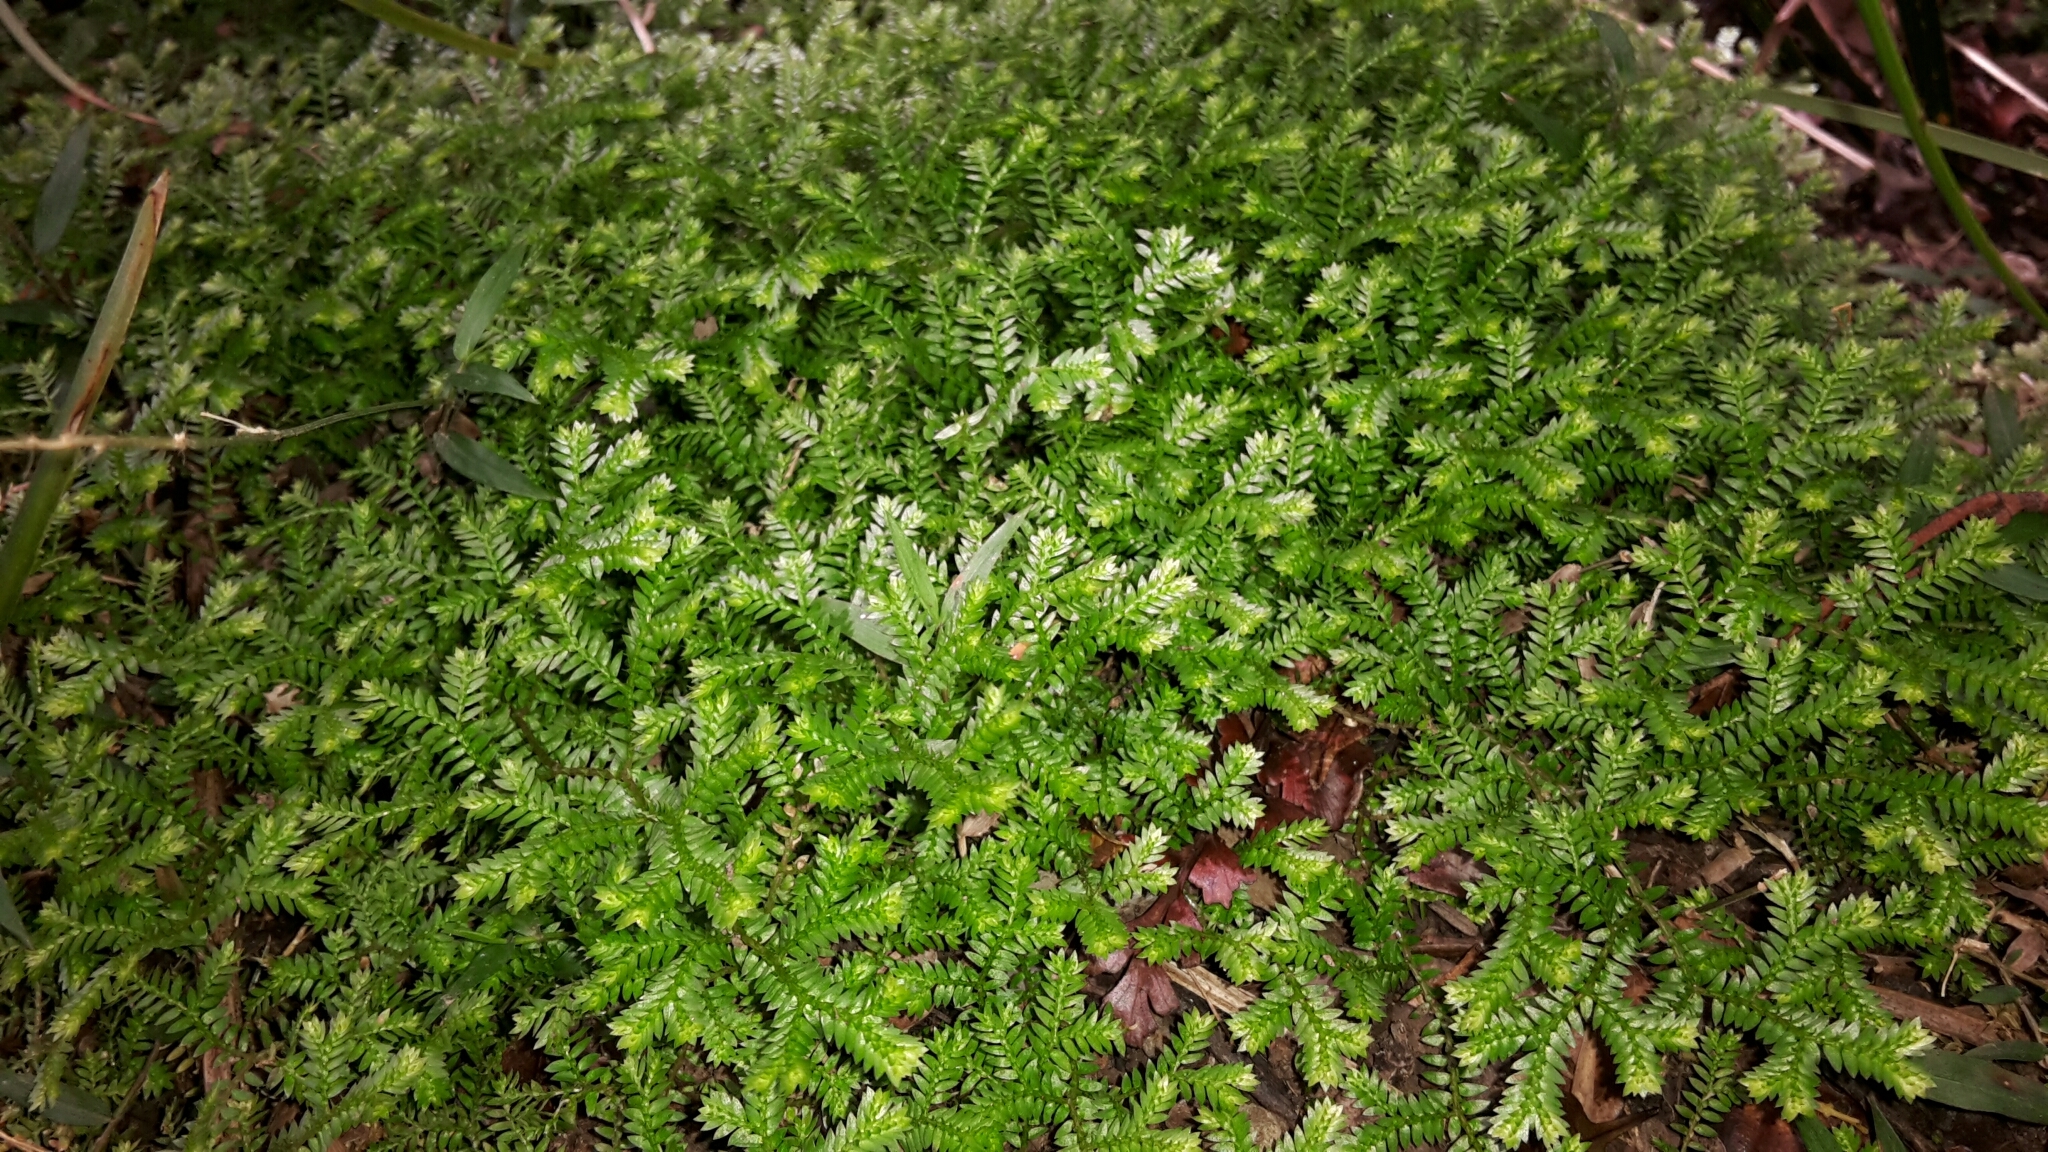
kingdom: Plantae
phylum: Tracheophyta
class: Lycopodiopsida
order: Selaginellales
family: Selaginellaceae
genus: Selaginella
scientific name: Selaginella kraussiana
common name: Krauss' spikemoss
